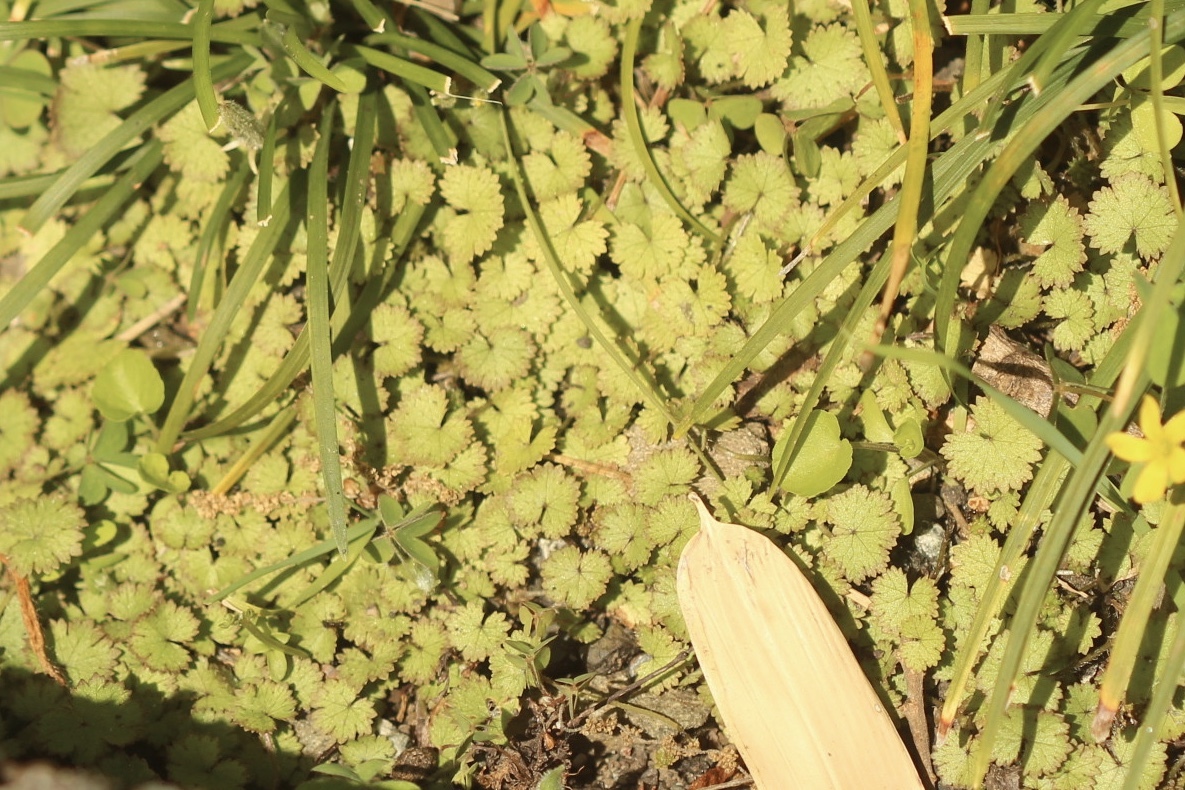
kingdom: Plantae
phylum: Tracheophyta
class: Magnoliopsida
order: Apiales
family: Araliaceae
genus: Hydrocotyle
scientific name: Hydrocotyle moschata
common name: Hairy pennywort
